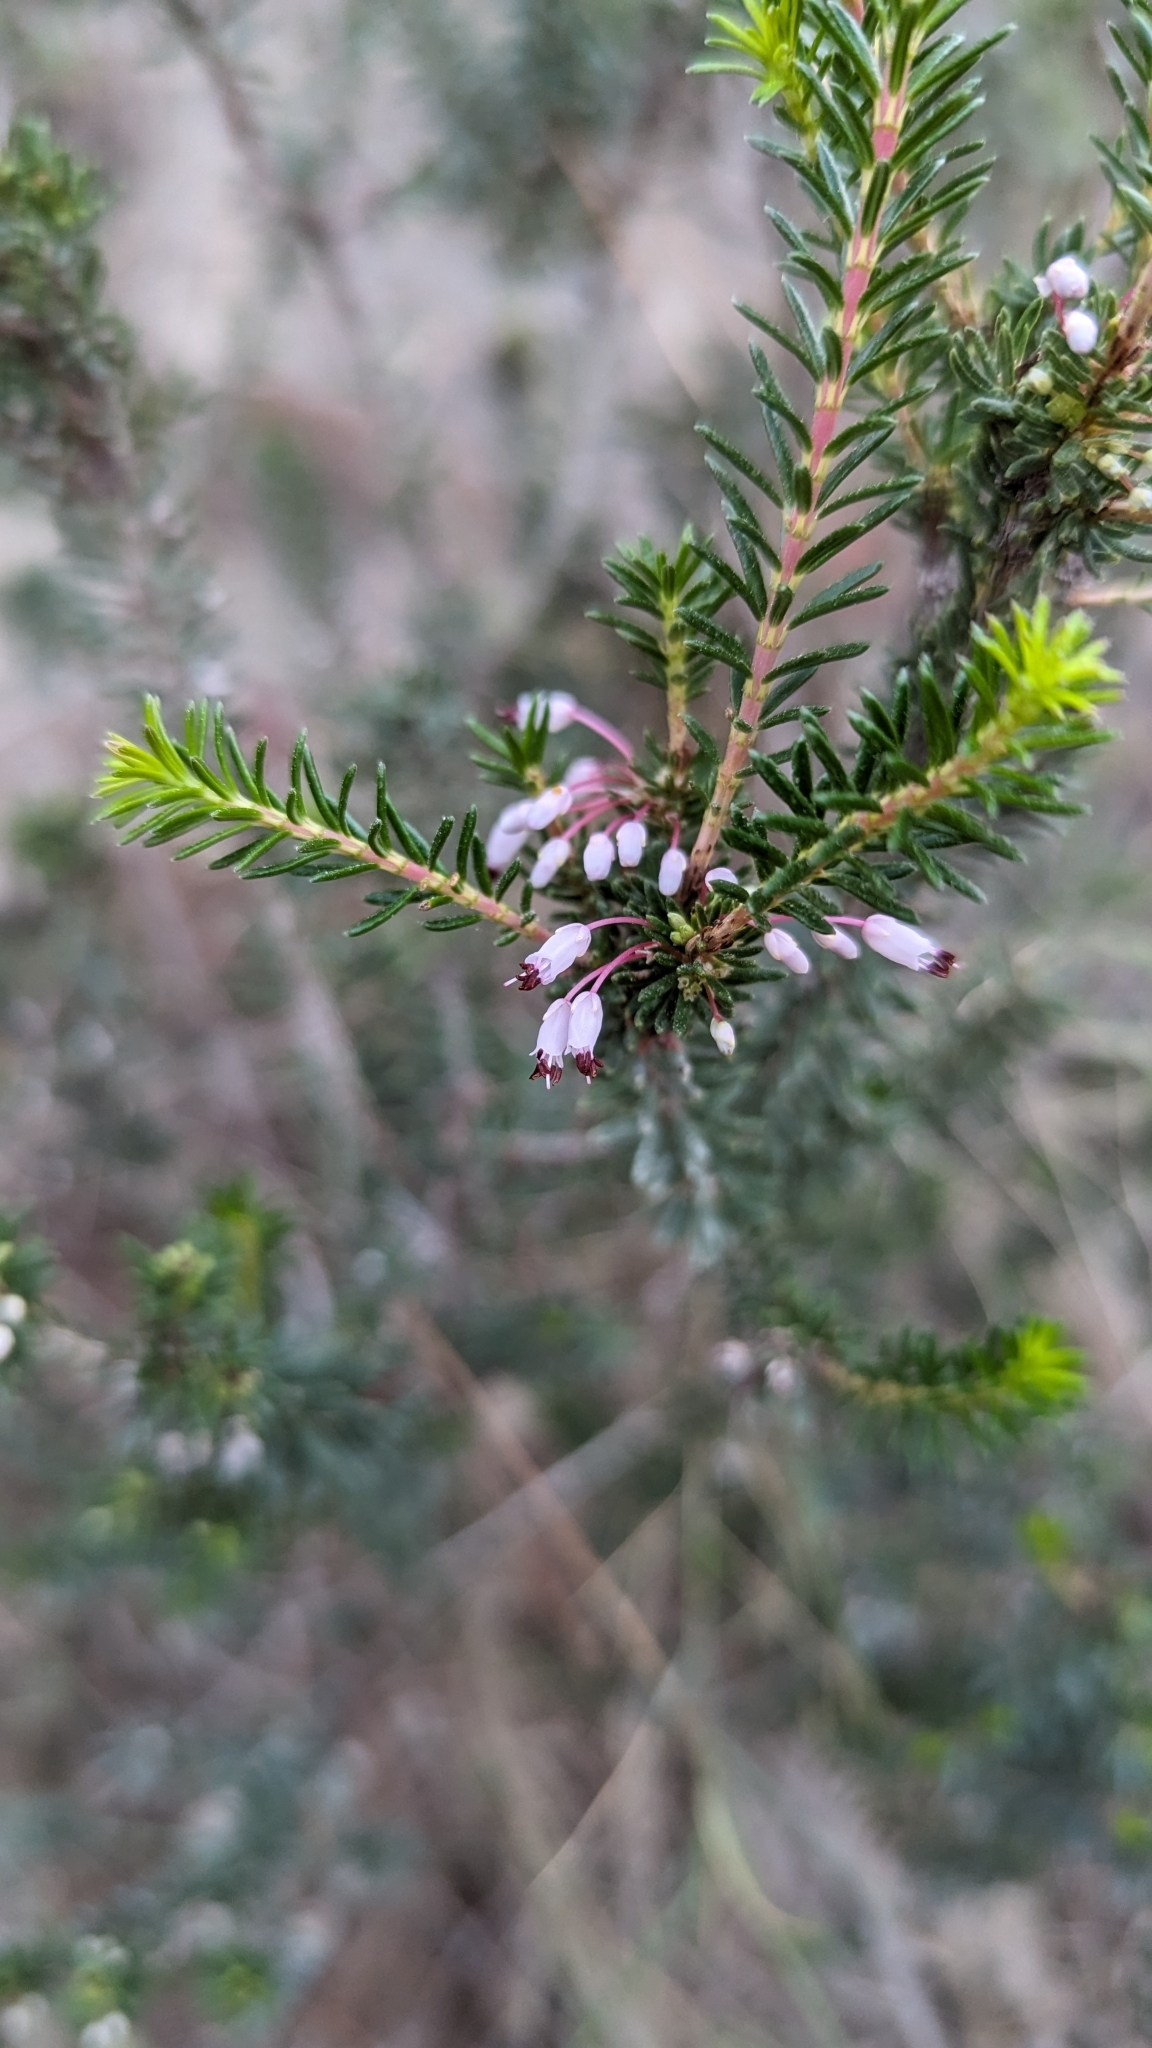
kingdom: Plantae
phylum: Tracheophyta
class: Magnoliopsida
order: Ericales
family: Ericaceae
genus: Erica
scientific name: Erica multiflora
